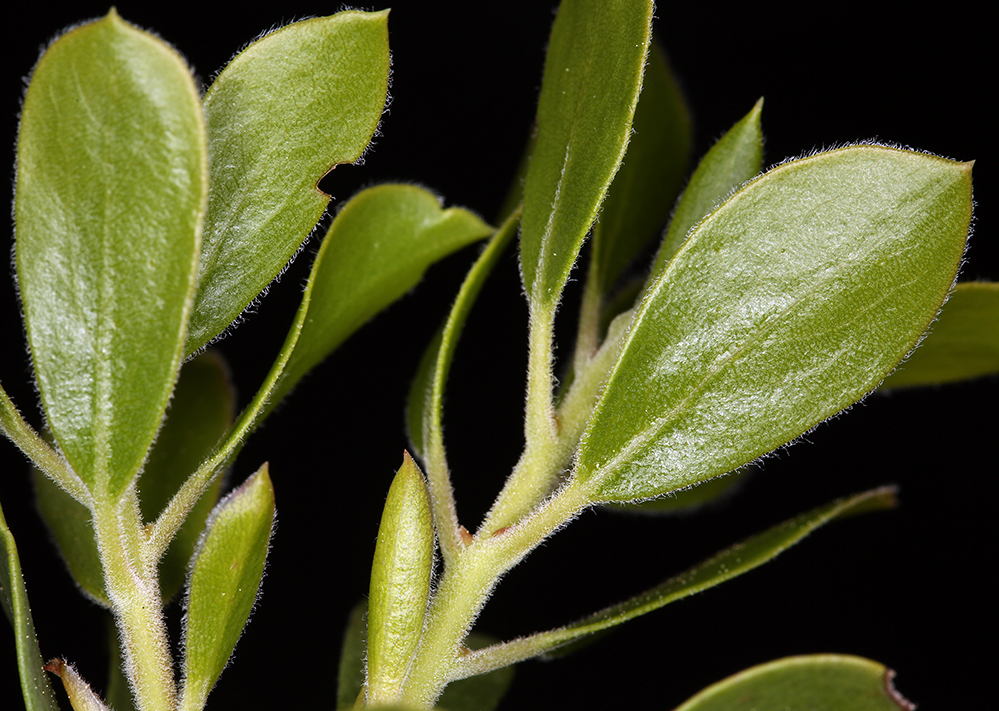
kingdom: Plantae
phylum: Tracheophyta
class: Magnoliopsida
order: Ericales
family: Ericaceae
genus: Arctostaphylos
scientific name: Arctostaphylos nevadensis
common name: Pinemat manzanita
